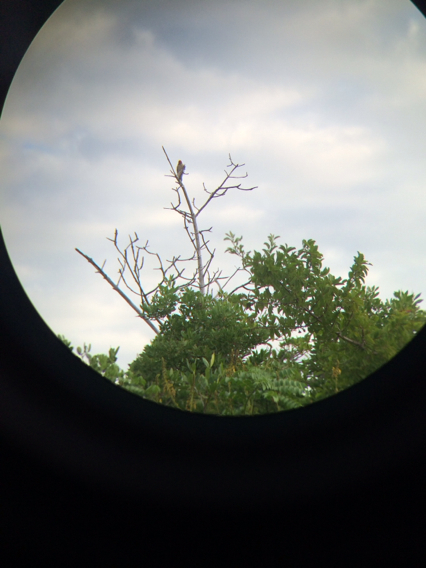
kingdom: Animalia
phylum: Chordata
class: Aves
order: Piciformes
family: Picidae
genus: Melanerpes
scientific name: Melanerpes carolinus
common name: Red-bellied woodpecker
